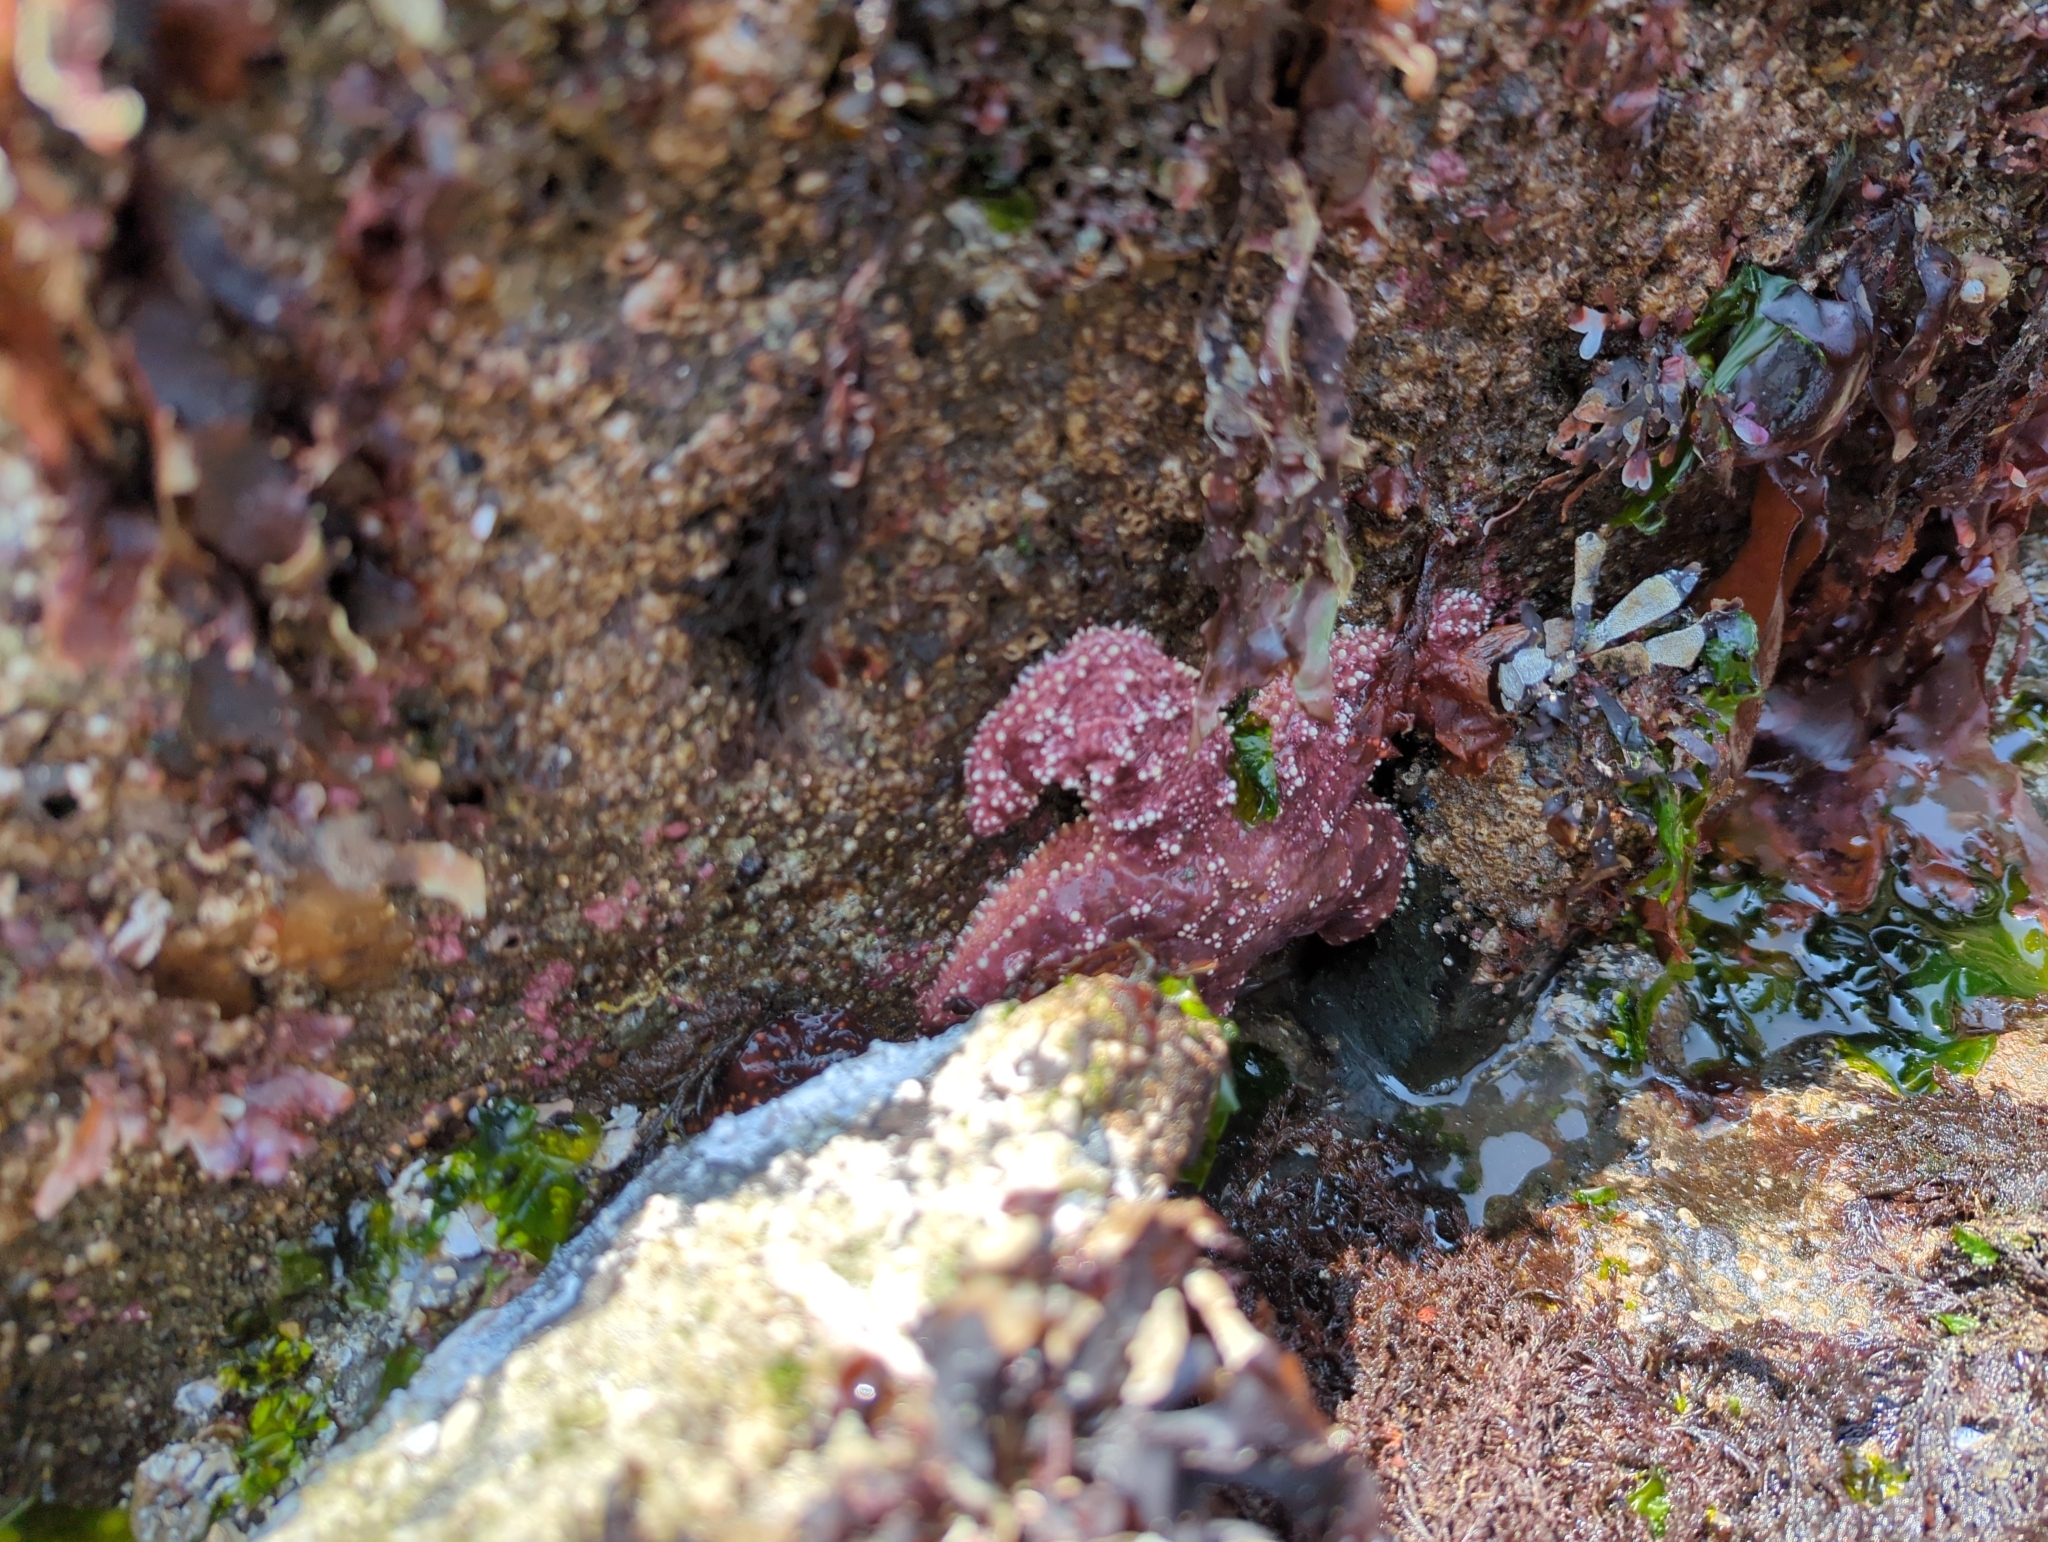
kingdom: Animalia
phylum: Echinodermata
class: Asteroidea
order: Forcipulatida
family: Asteriidae
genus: Pisaster
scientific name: Pisaster ochraceus
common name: Ochre stars
